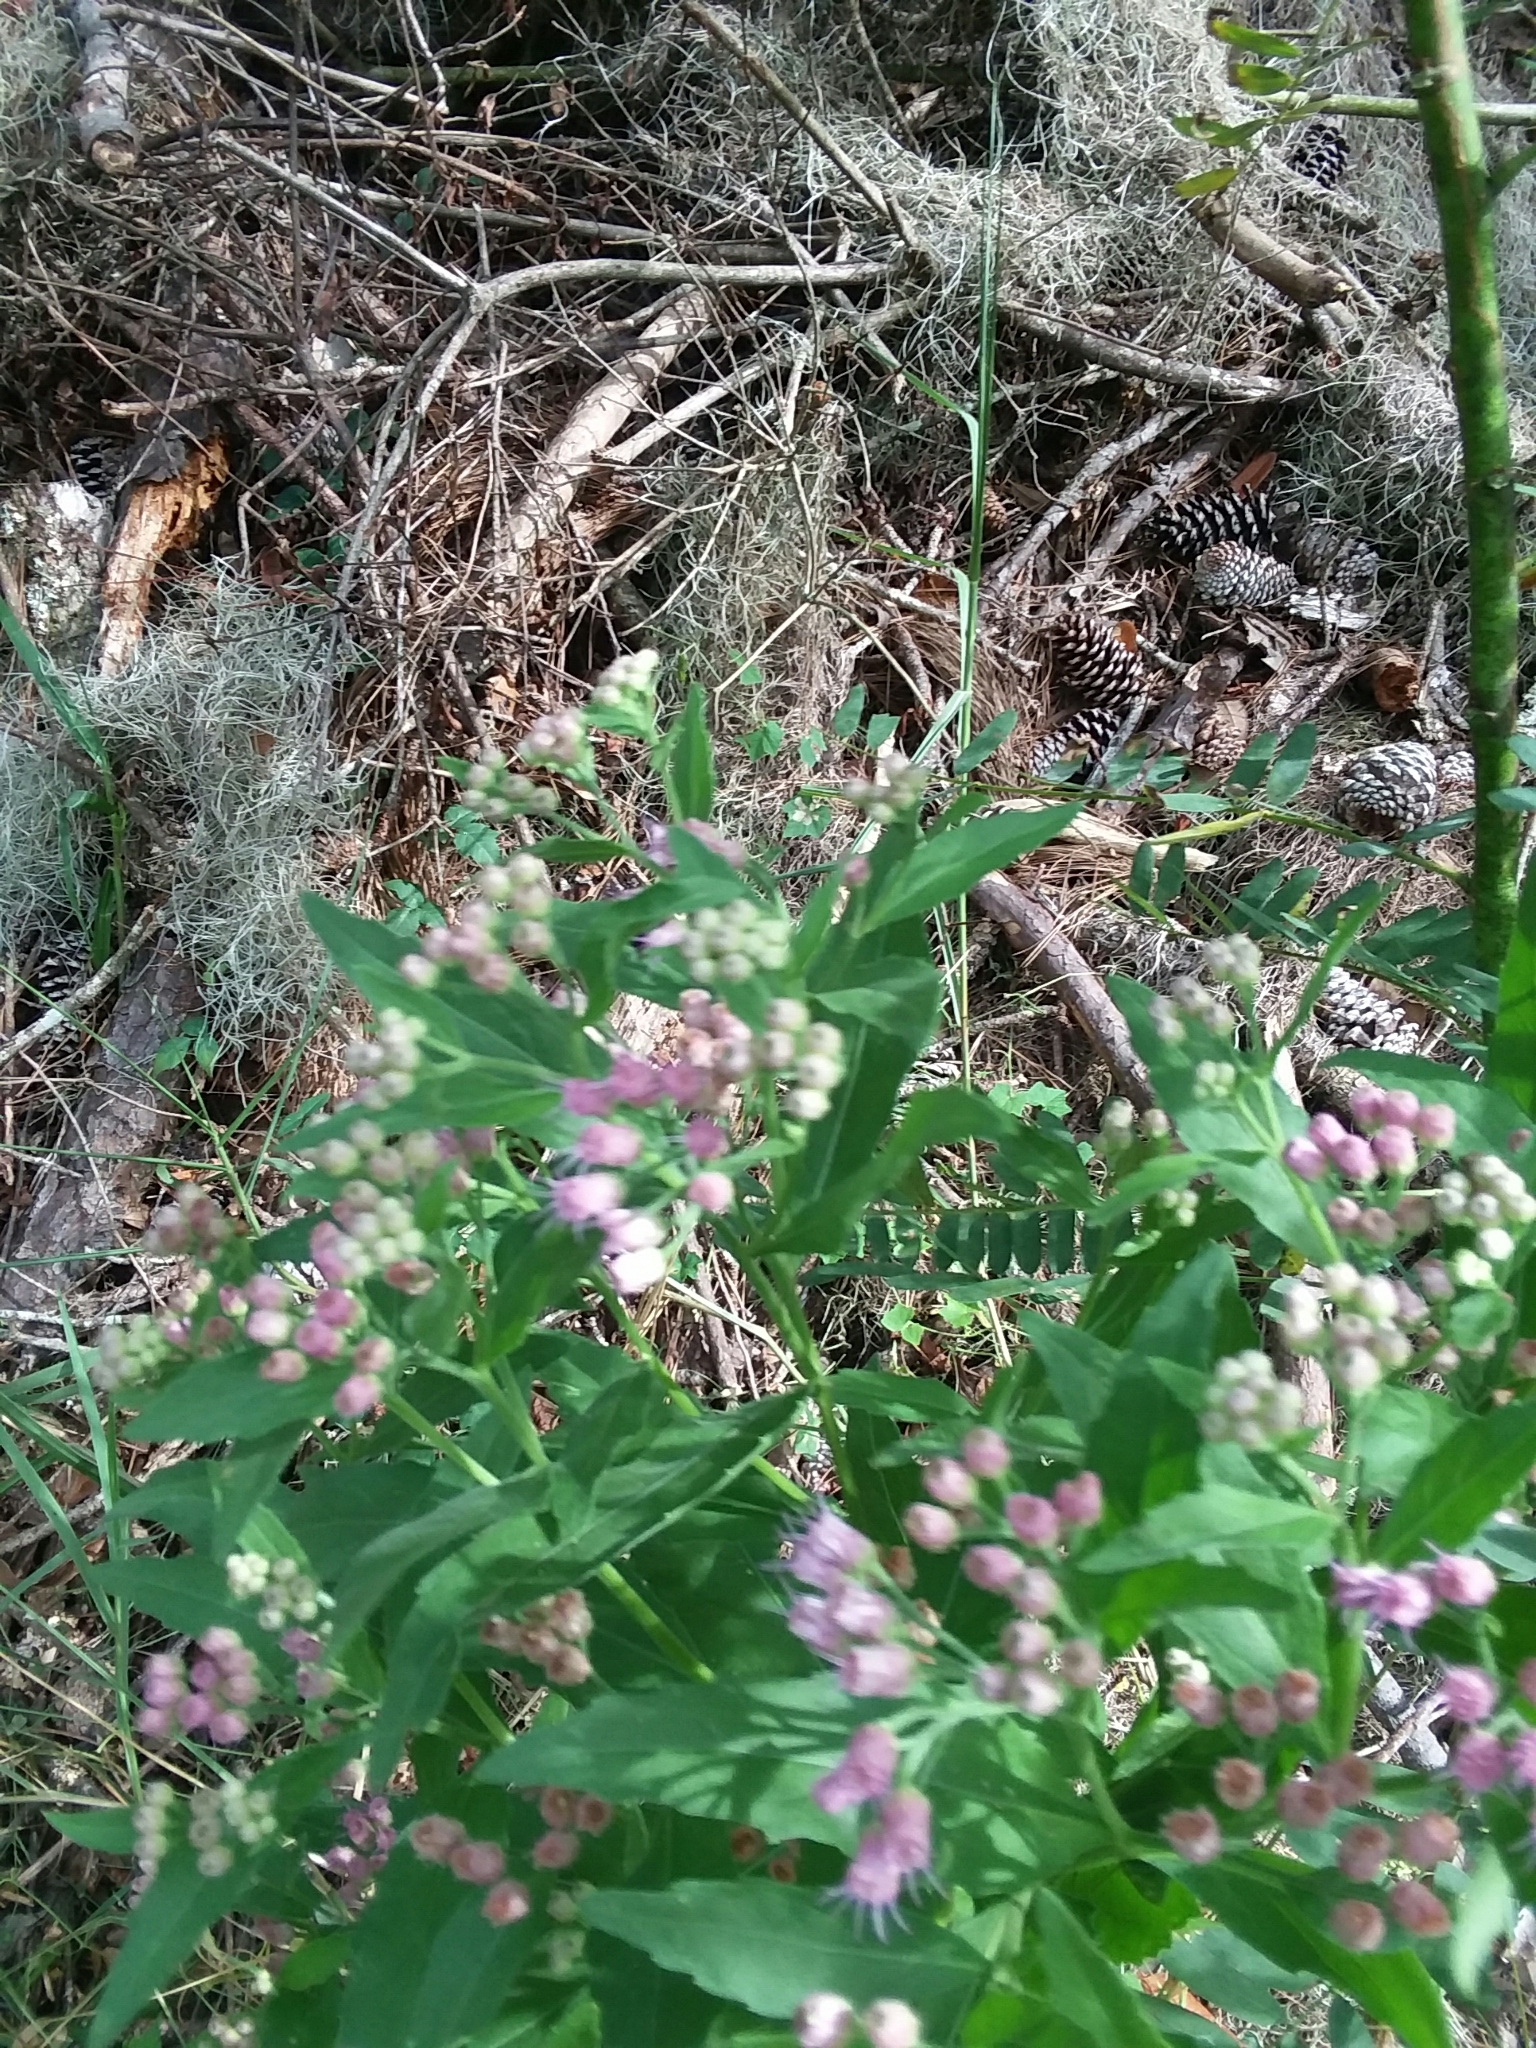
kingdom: Plantae
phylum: Tracheophyta
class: Magnoliopsida
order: Asterales
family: Asteraceae
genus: Pluchea
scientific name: Pluchea odorata
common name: Saltmarsh fleabane
